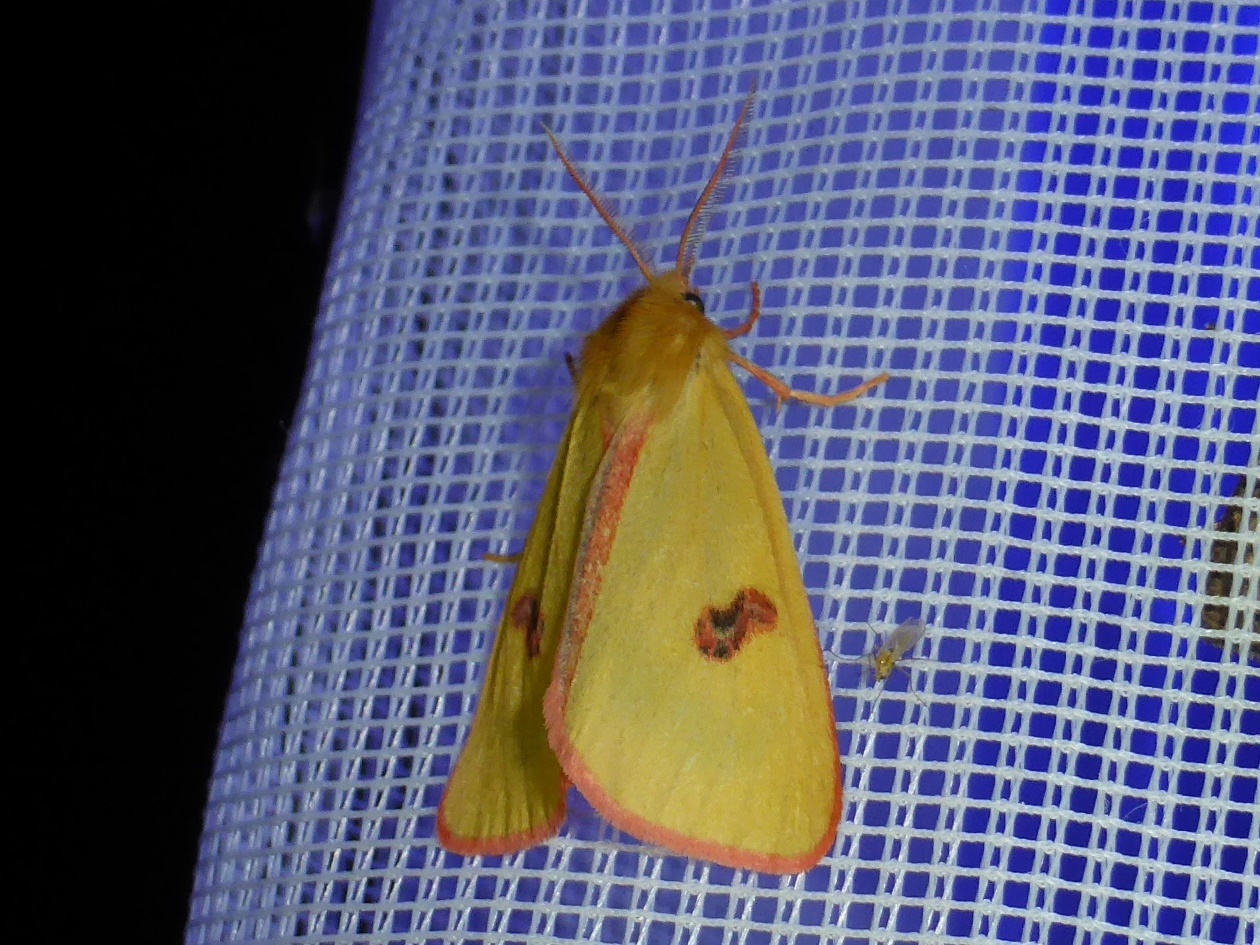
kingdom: Animalia
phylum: Arthropoda
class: Insecta
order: Lepidoptera
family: Erebidae
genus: Diacrisia
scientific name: Diacrisia sannio
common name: Clouded buff
